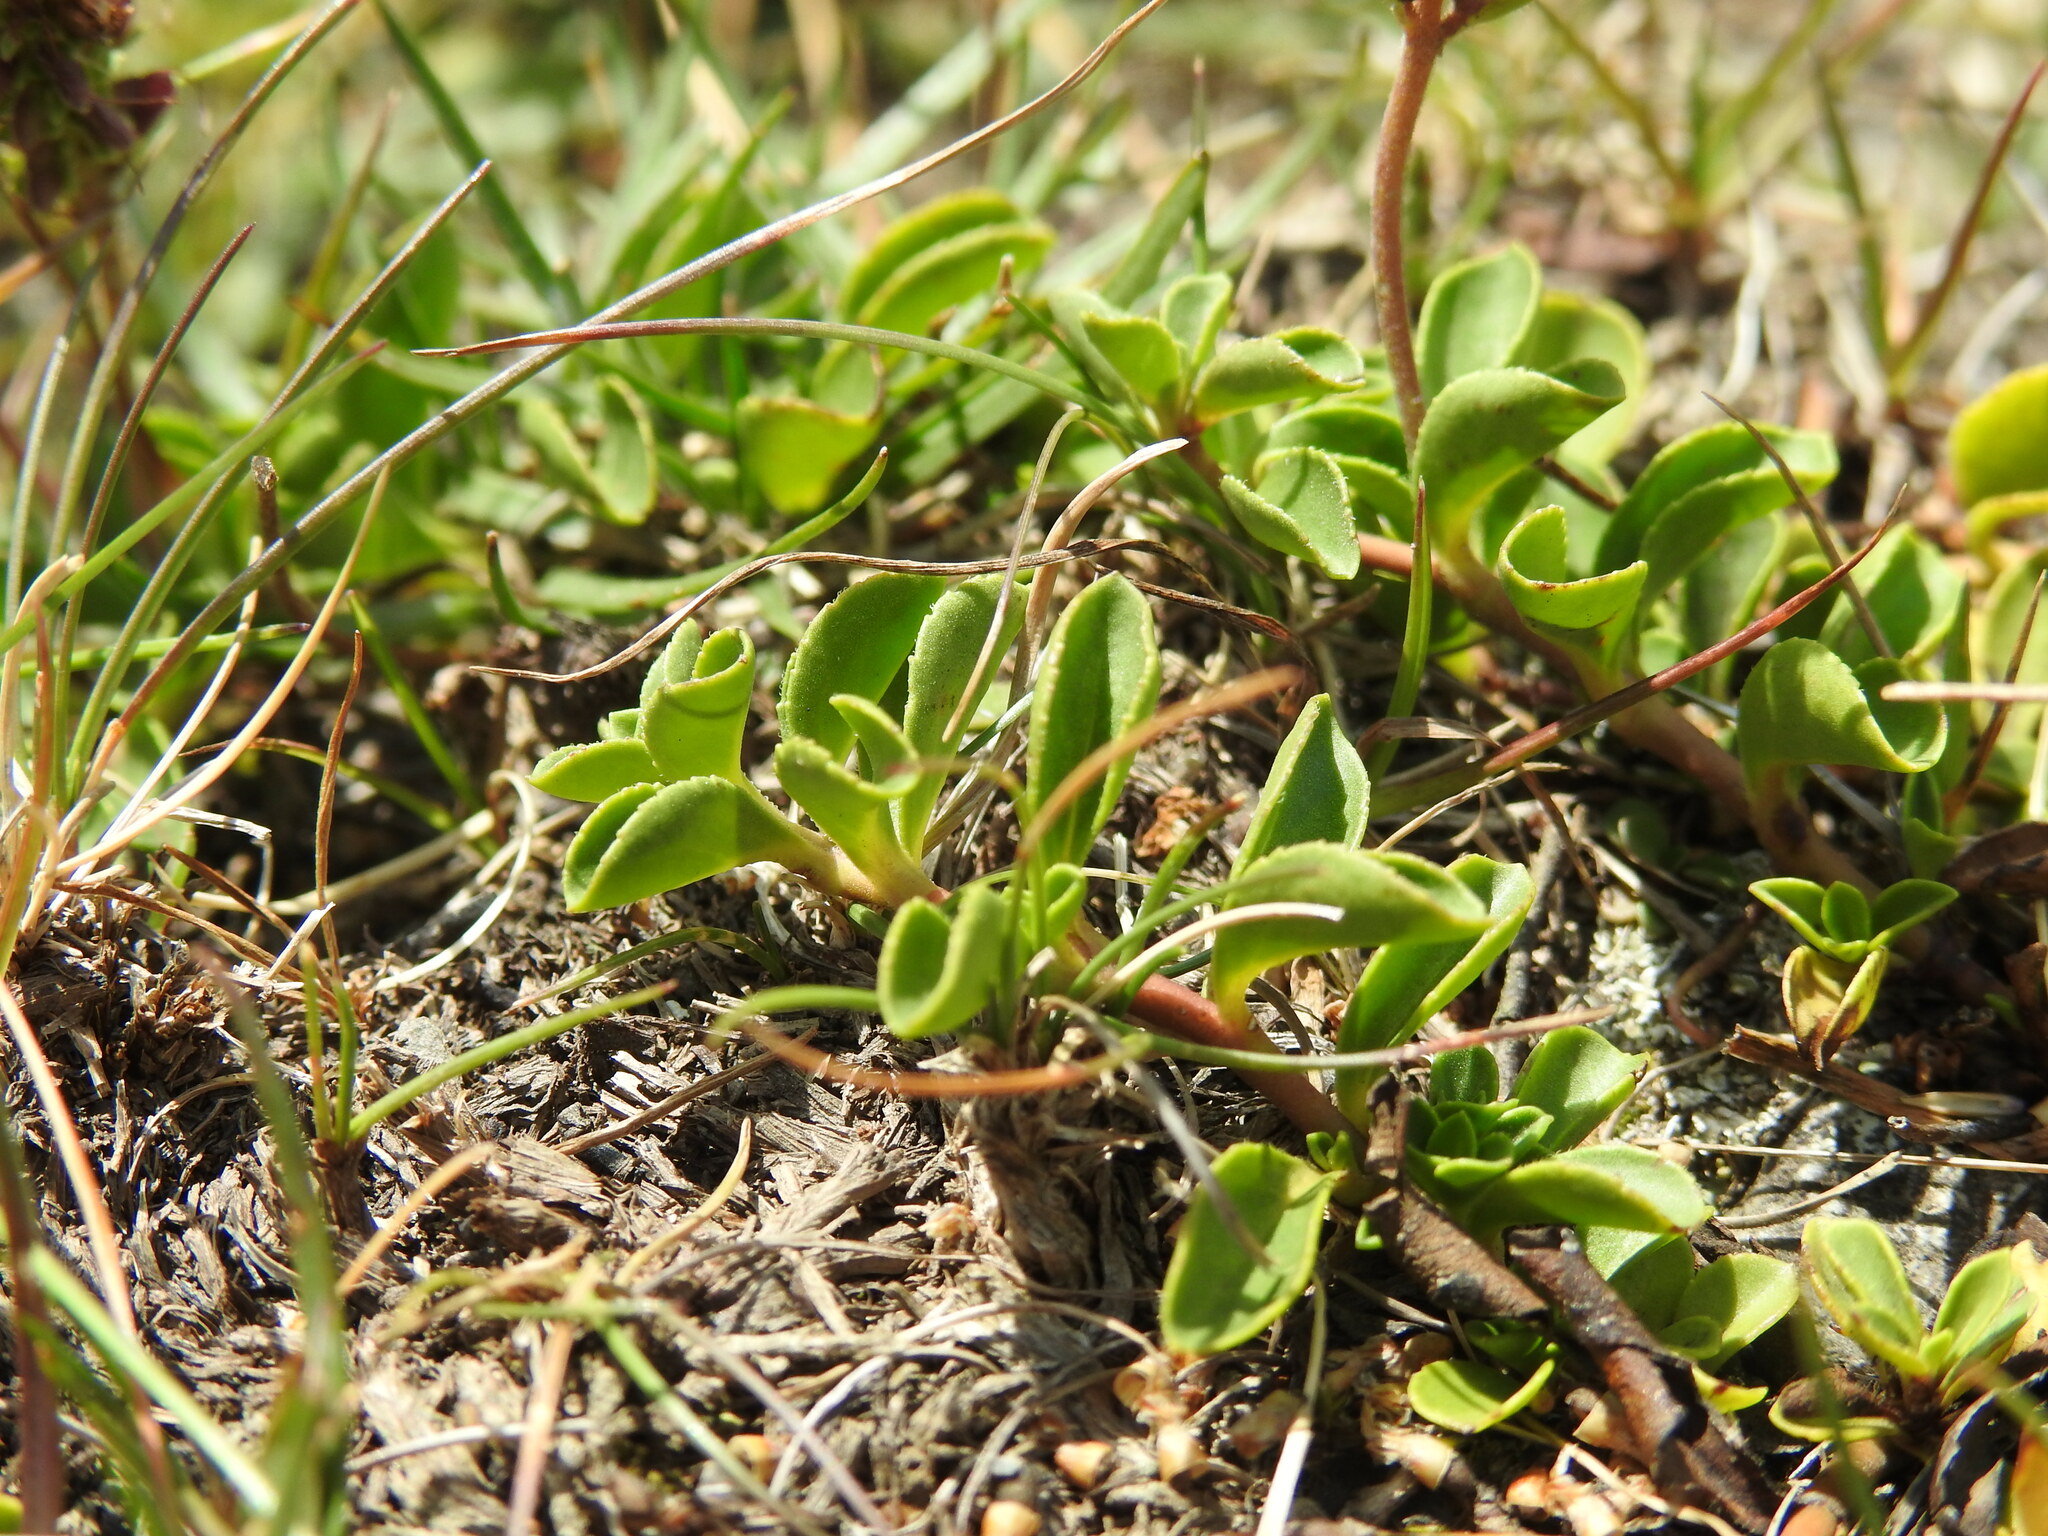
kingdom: Plantae
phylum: Tracheophyta
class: Magnoliopsida
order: Lamiales
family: Plantaginaceae
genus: Veronica
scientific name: Veronica allionii
